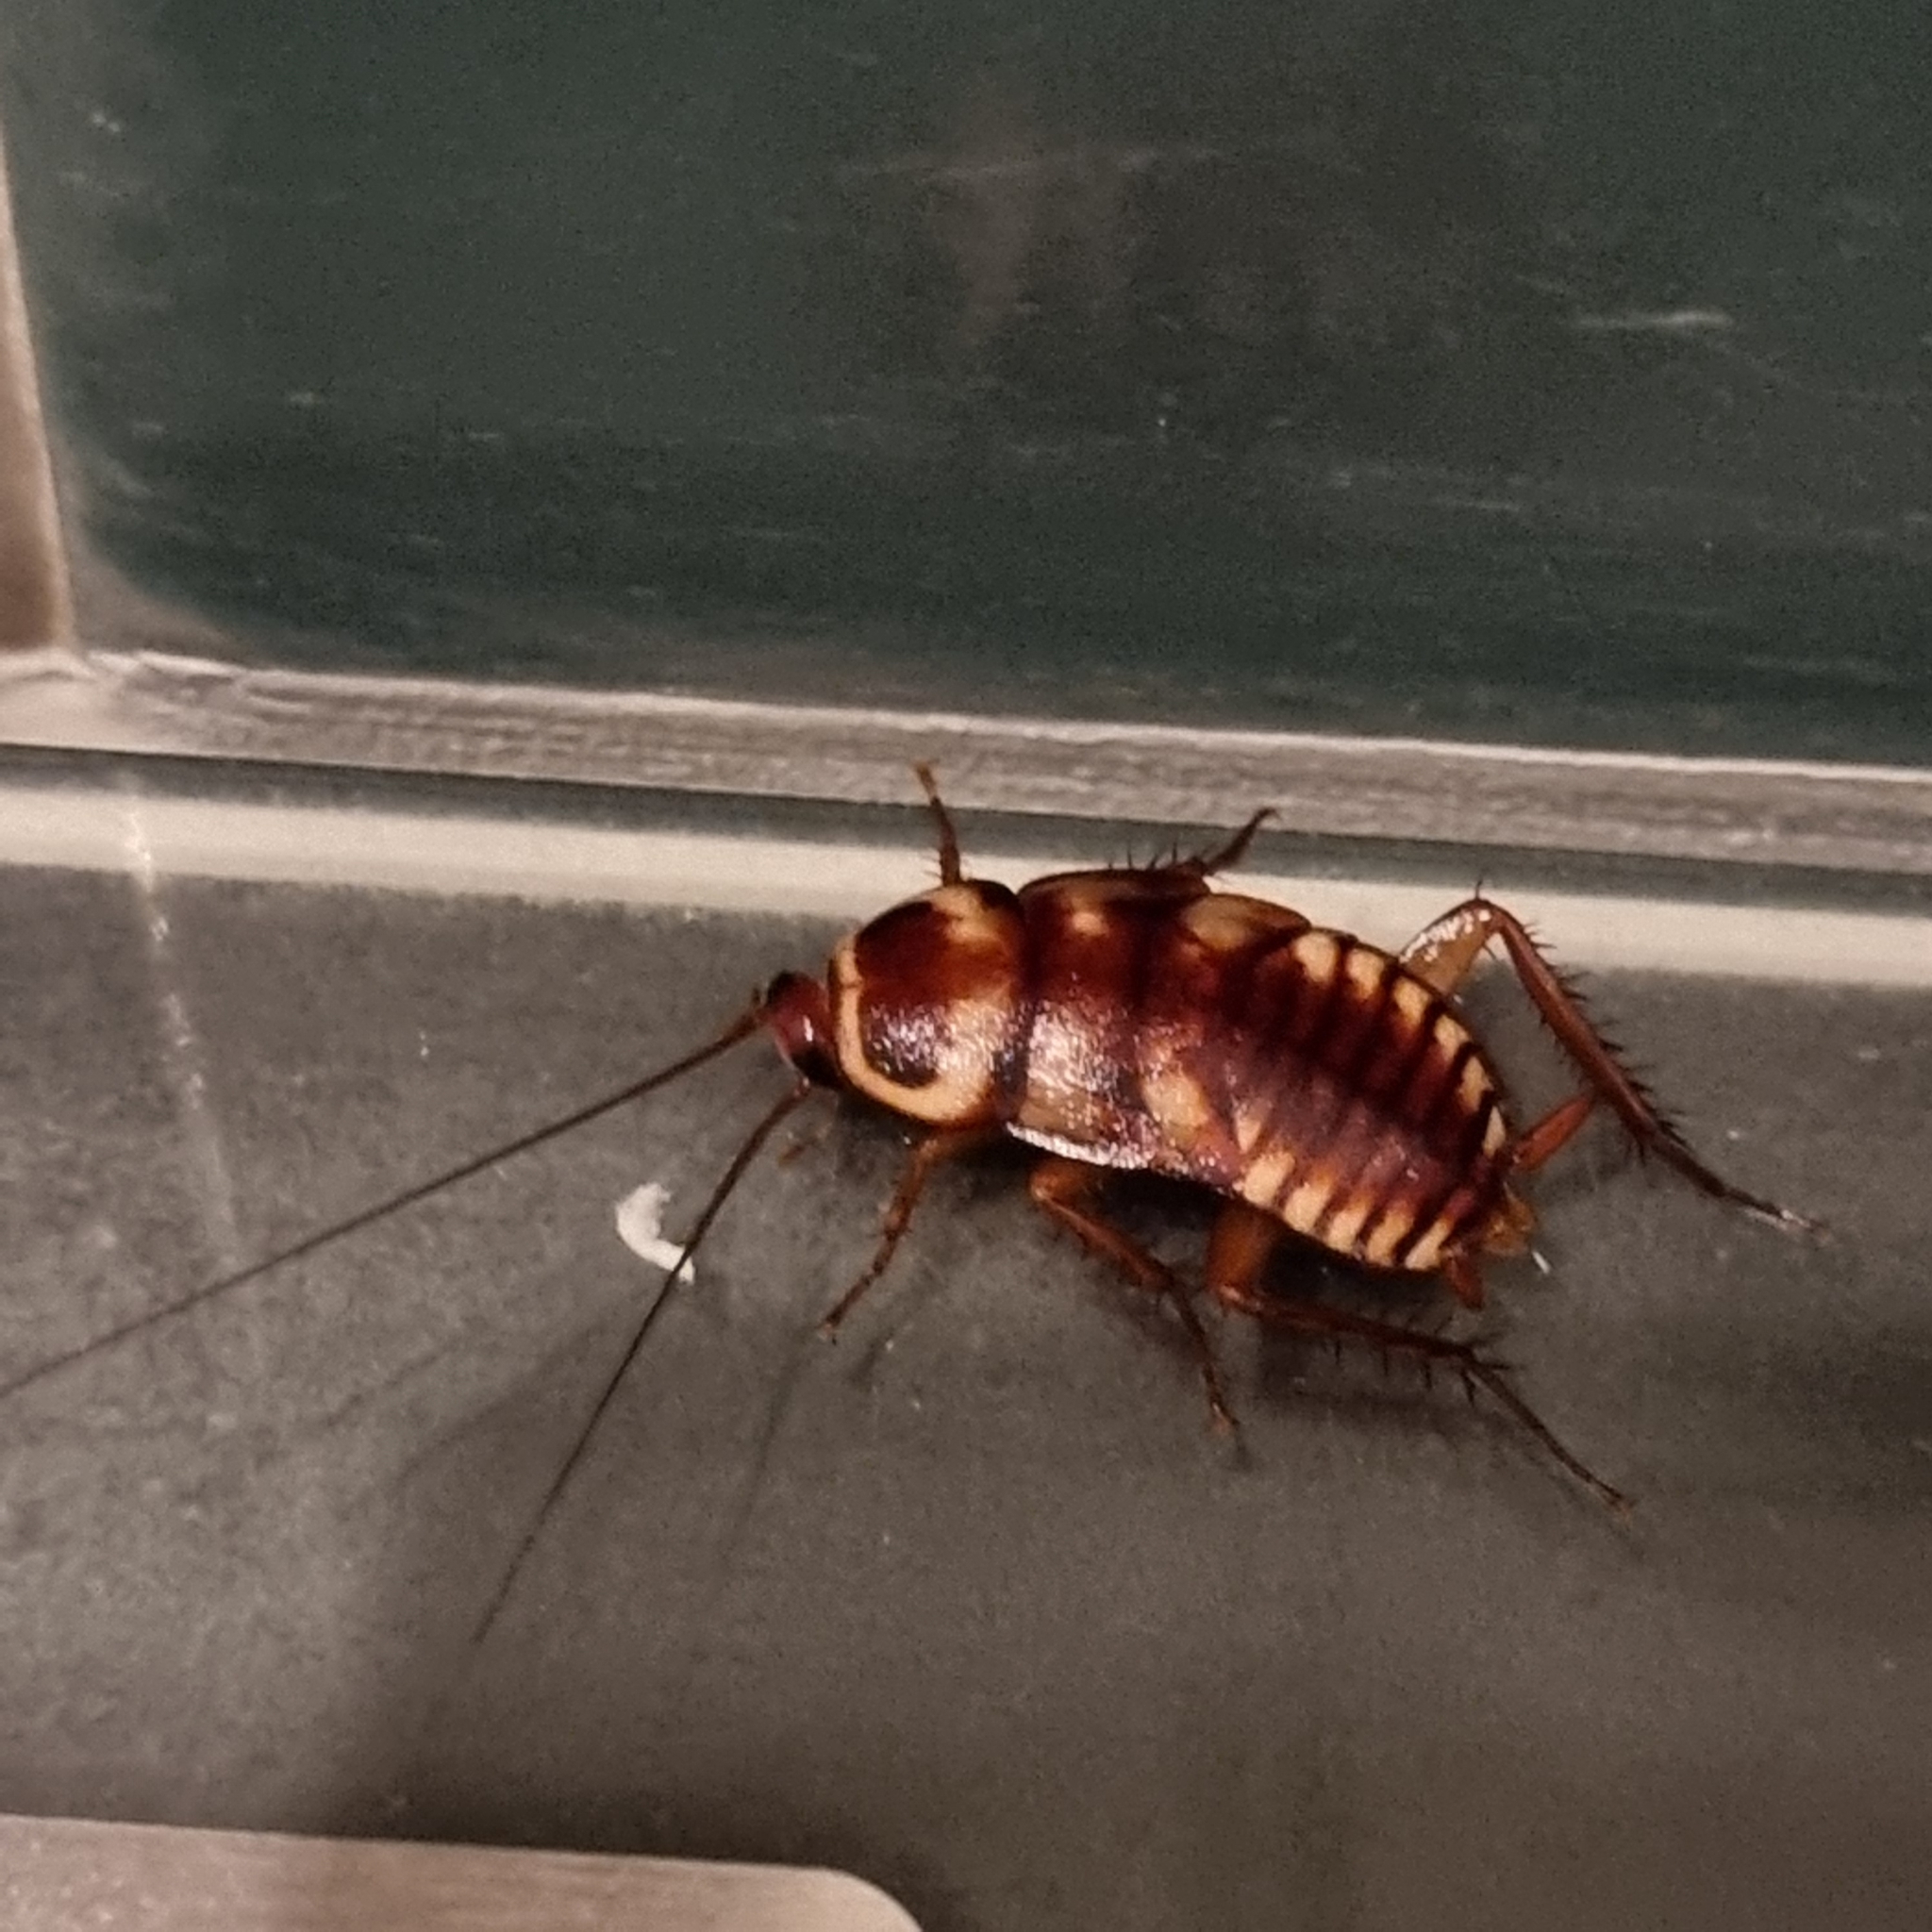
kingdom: Animalia
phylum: Arthropoda
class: Insecta
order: Blattodea
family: Blattidae
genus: Periplaneta
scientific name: Periplaneta australasiae
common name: Australian cockroach
